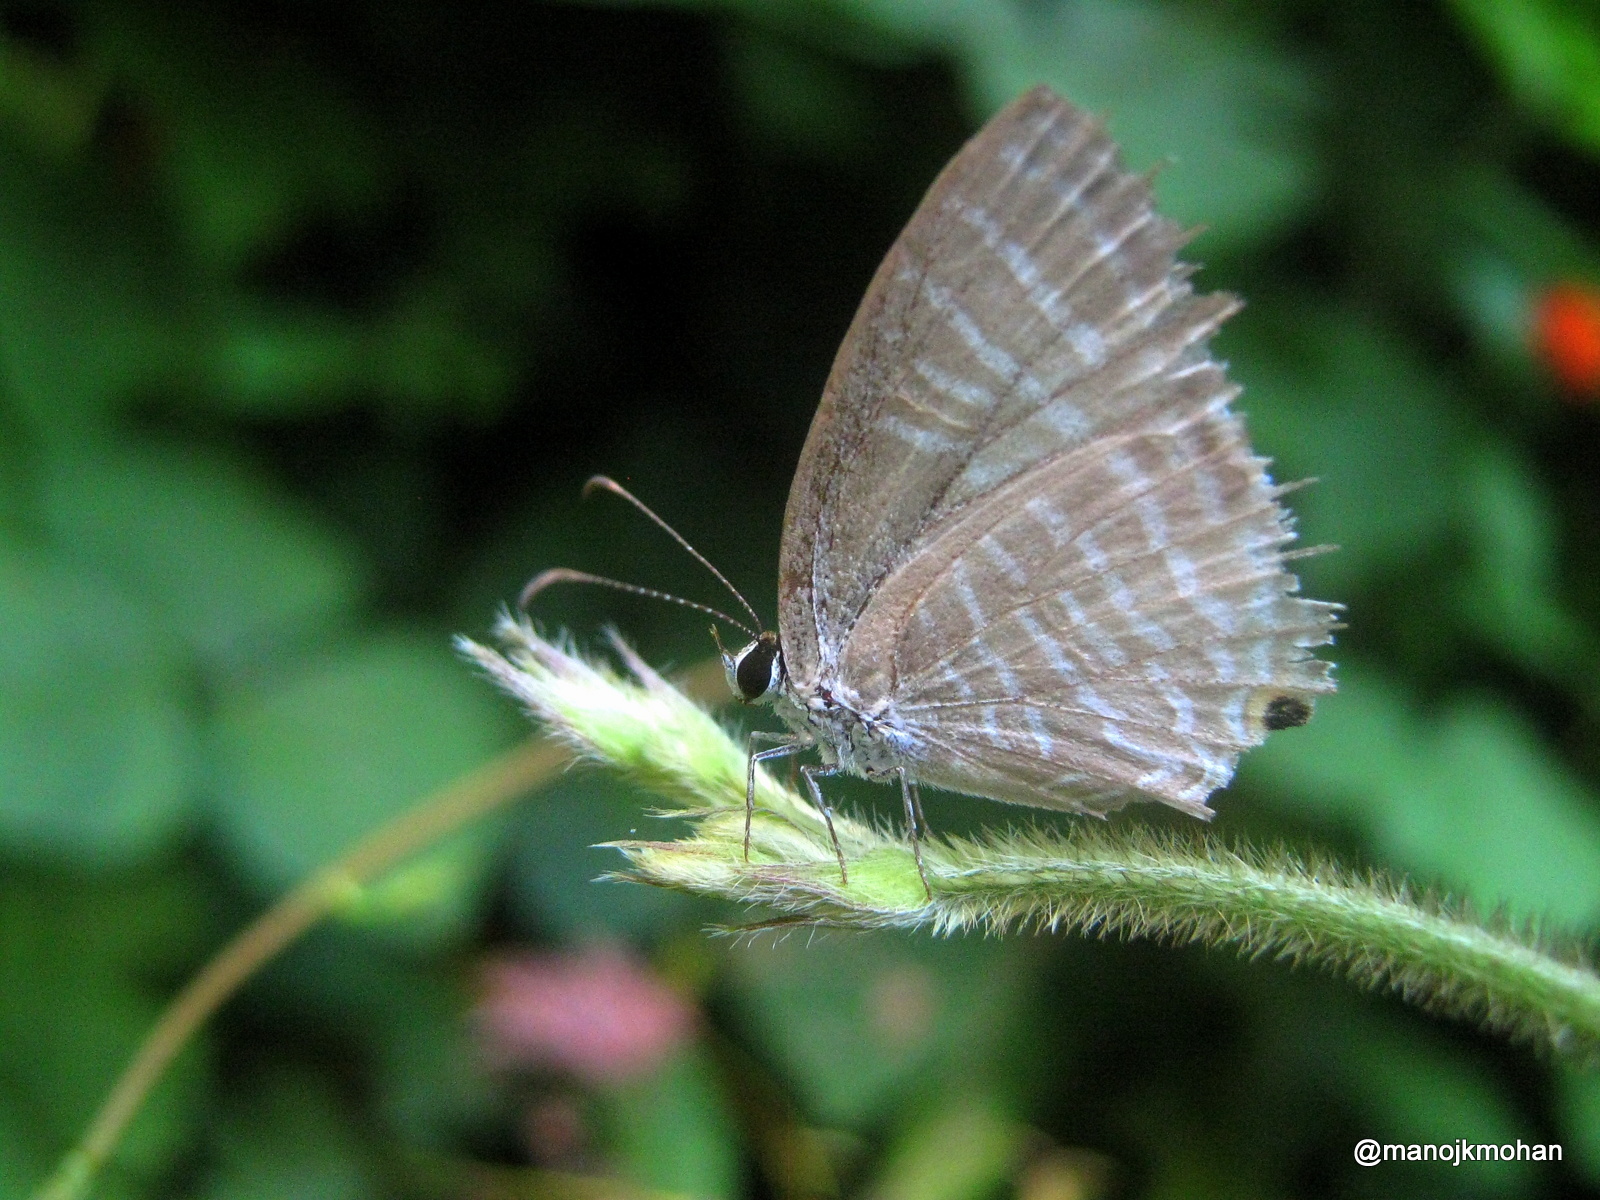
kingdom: Animalia
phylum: Arthropoda
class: Insecta
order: Lepidoptera
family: Lycaenidae
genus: Jamides
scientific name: Jamides celeno
